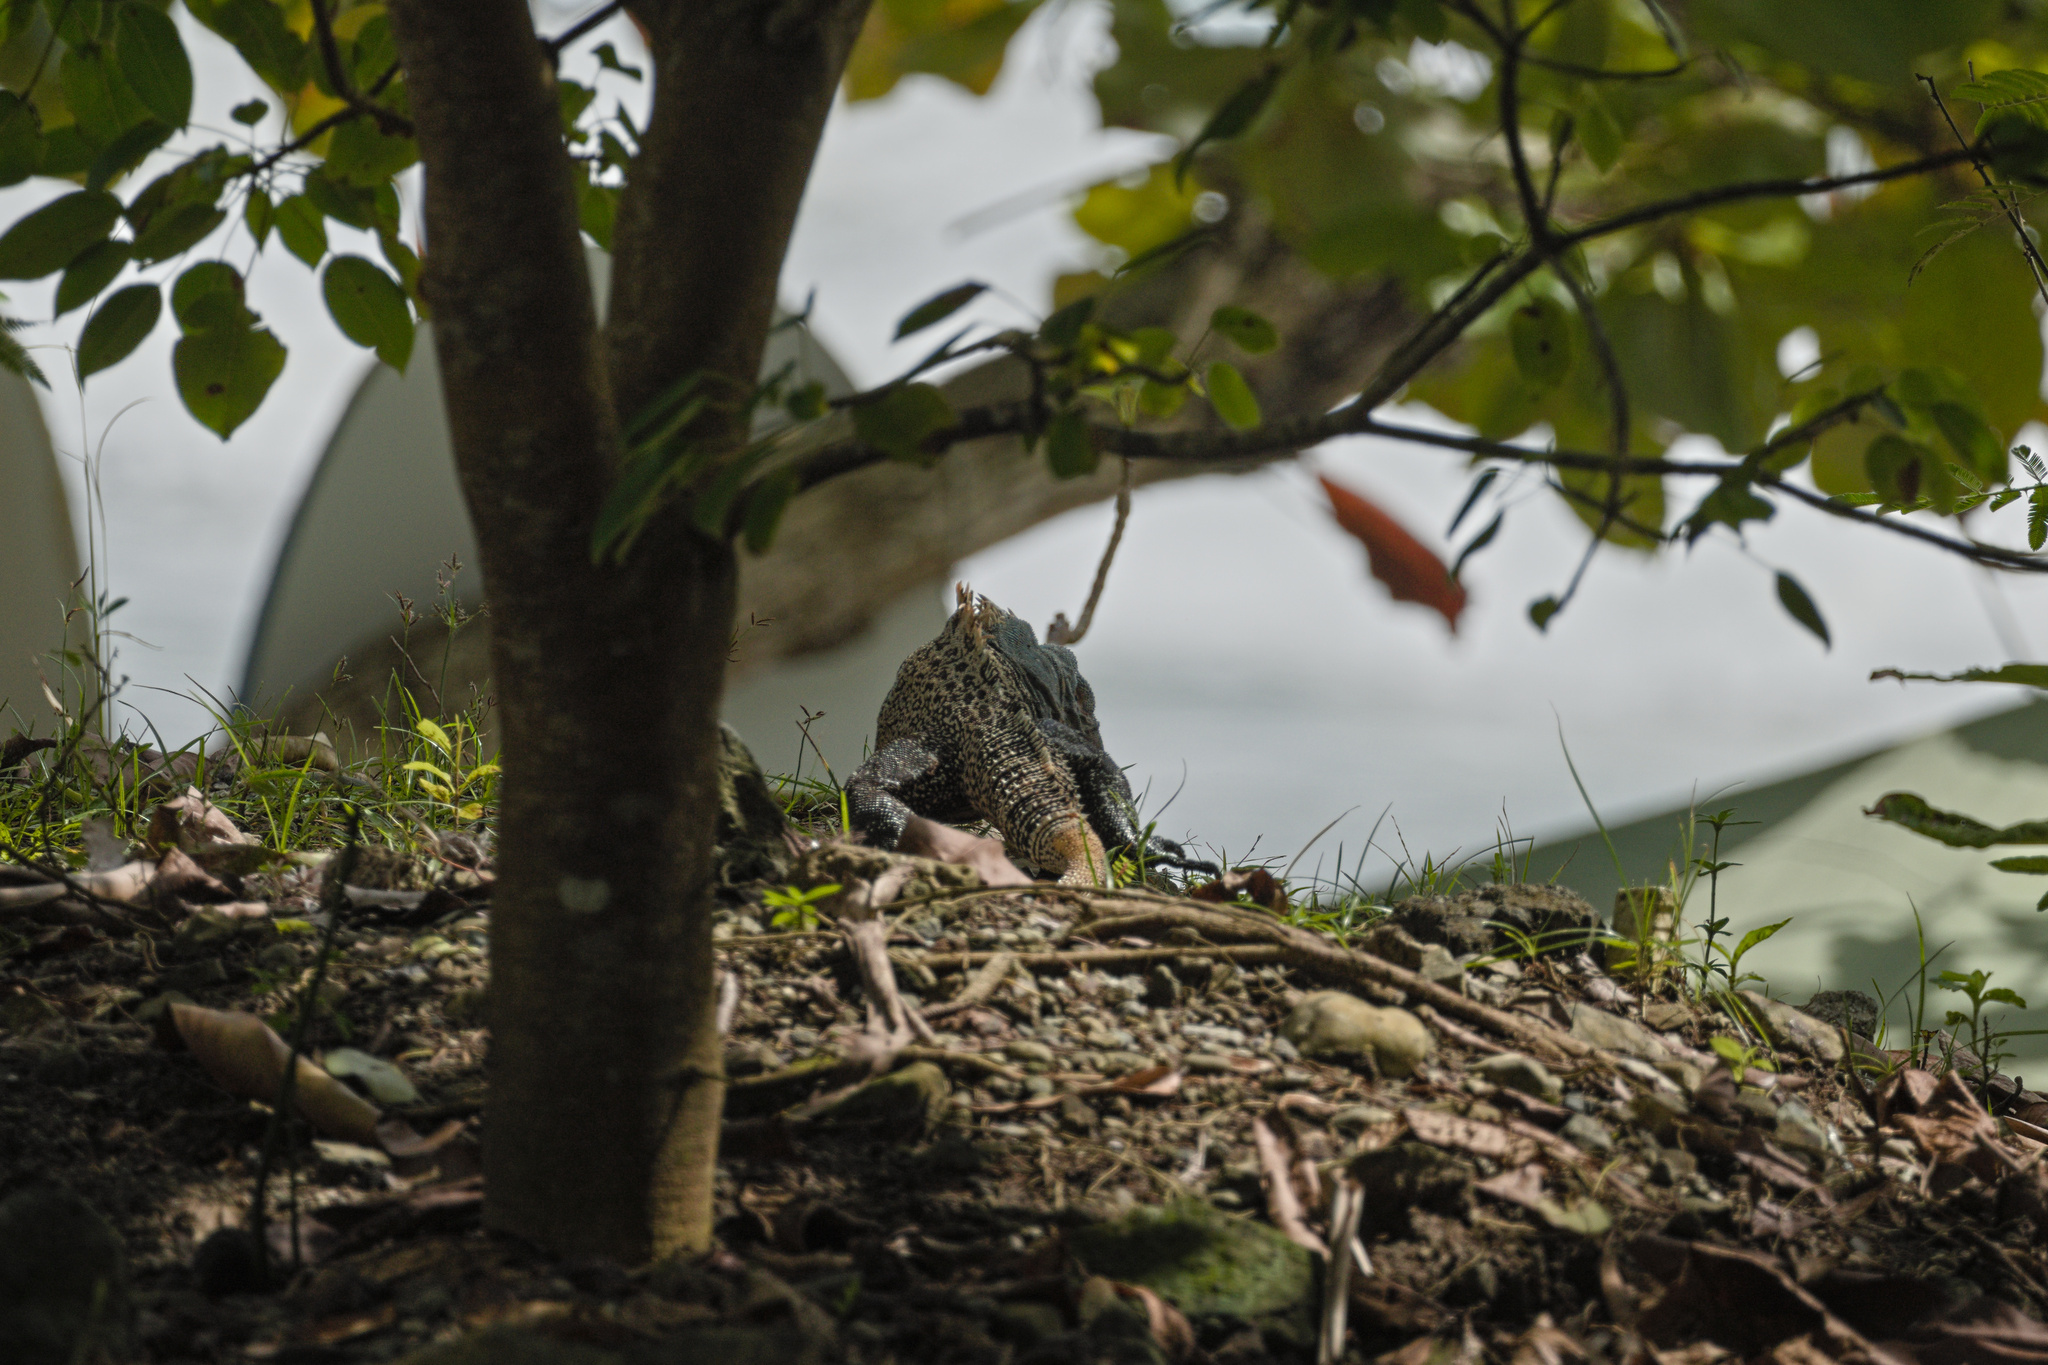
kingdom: Animalia
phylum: Chordata
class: Squamata
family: Iguanidae
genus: Ctenosaura
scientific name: Ctenosaura similis
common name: Black spiny-tailed iguana
